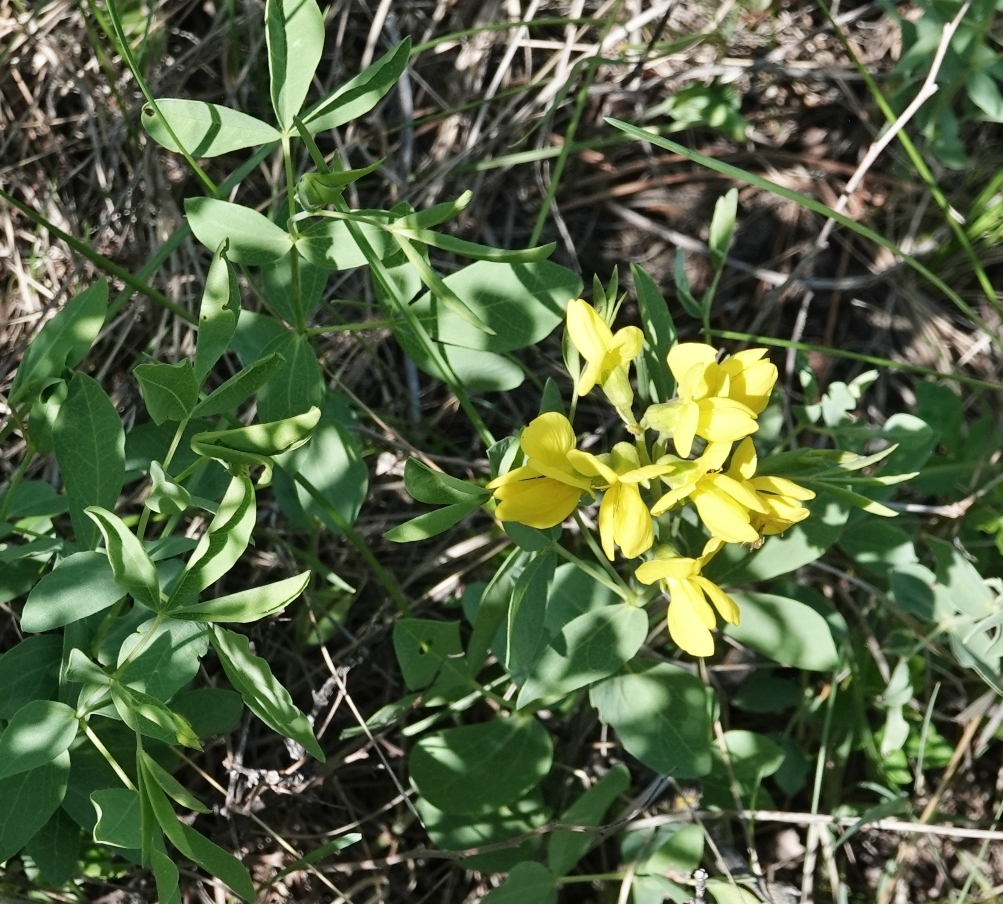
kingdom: Plantae
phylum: Tracheophyta
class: Magnoliopsida
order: Fabales
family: Fabaceae
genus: Thermopsis
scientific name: Thermopsis rhombifolia
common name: Circle-pod-pea
